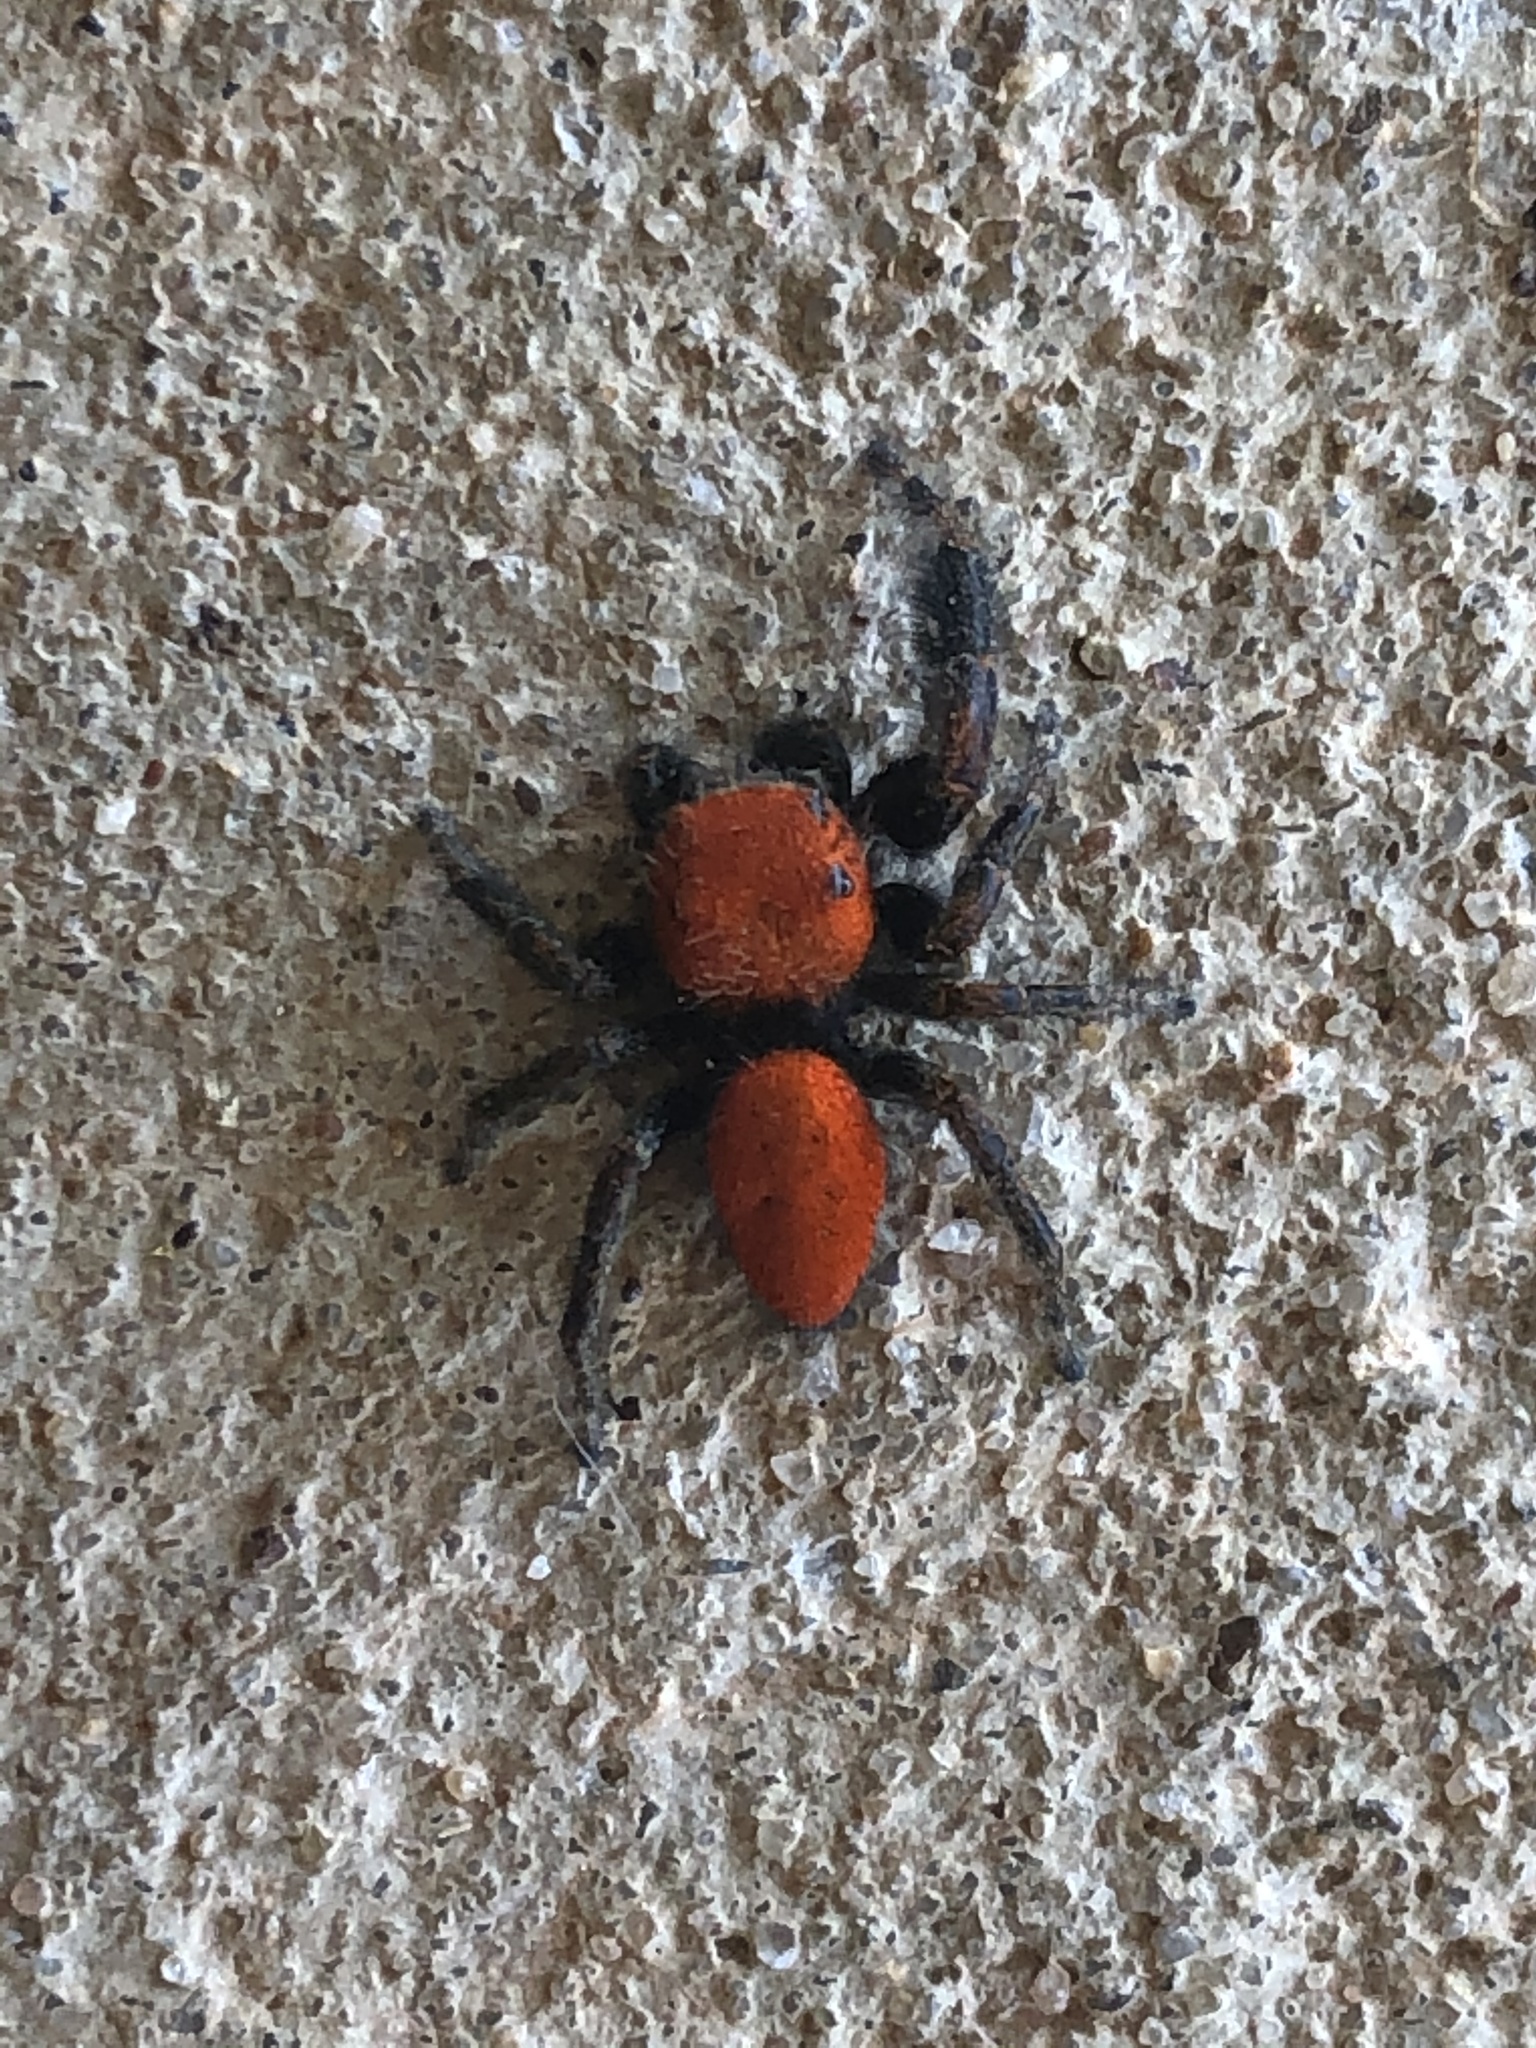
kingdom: Animalia
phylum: Arthropoda
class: Arachnida
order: Araneae
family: Salticidae
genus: Phidippus
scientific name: Phidippus cardinalis
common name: Cardinal jumper
